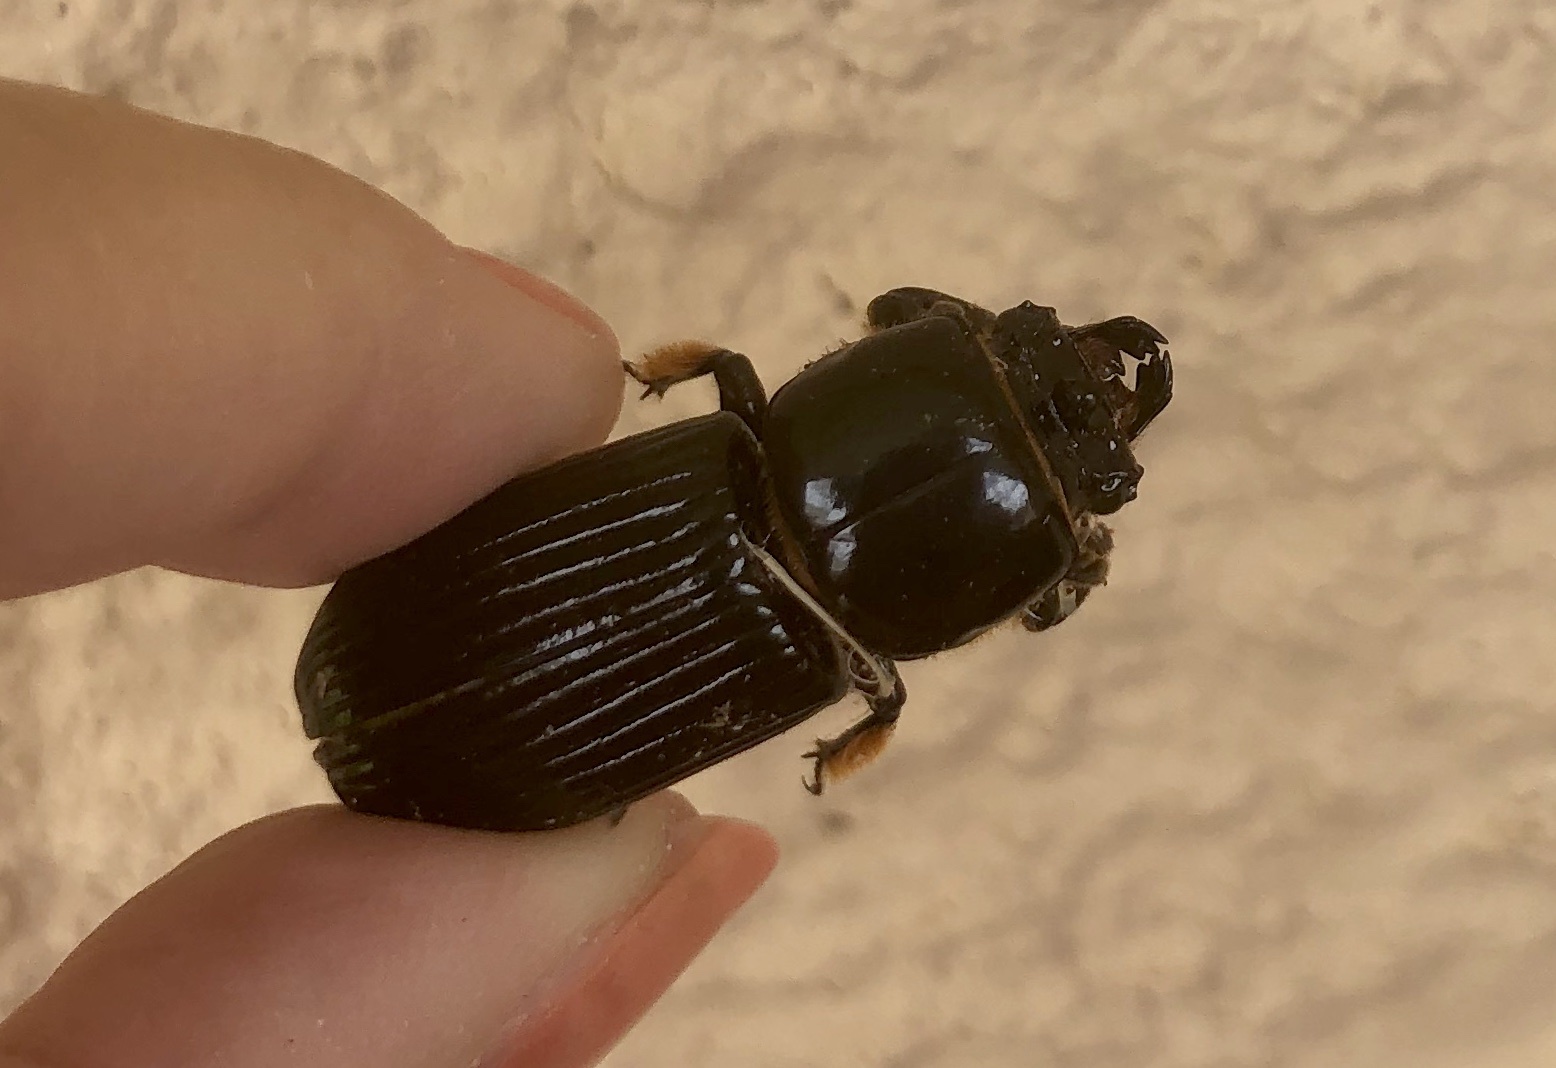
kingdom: Animalia
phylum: Arthropoda
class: Insecta
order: Coleoptera
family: Passalidae
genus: Odontotaenius
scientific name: Odontotaenius disjunctus
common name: Patent leather beetle
